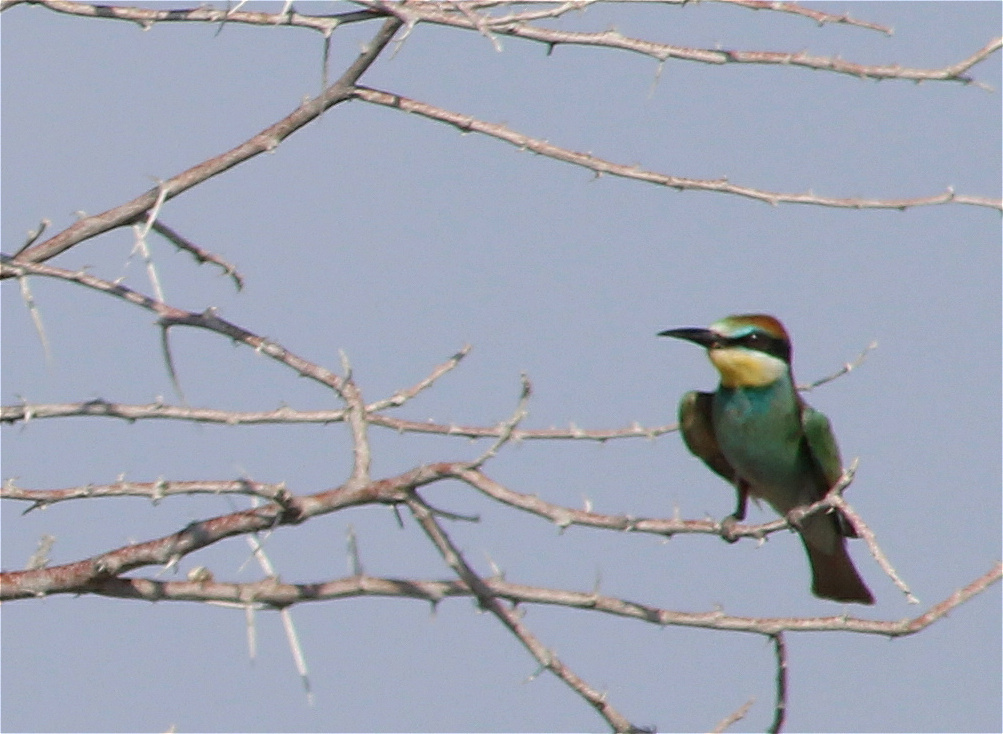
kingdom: Animalia
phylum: Chordata
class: Aves
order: Coraciiformes
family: Meropidae
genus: Merops
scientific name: Merops apiaster
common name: European bee-eater
